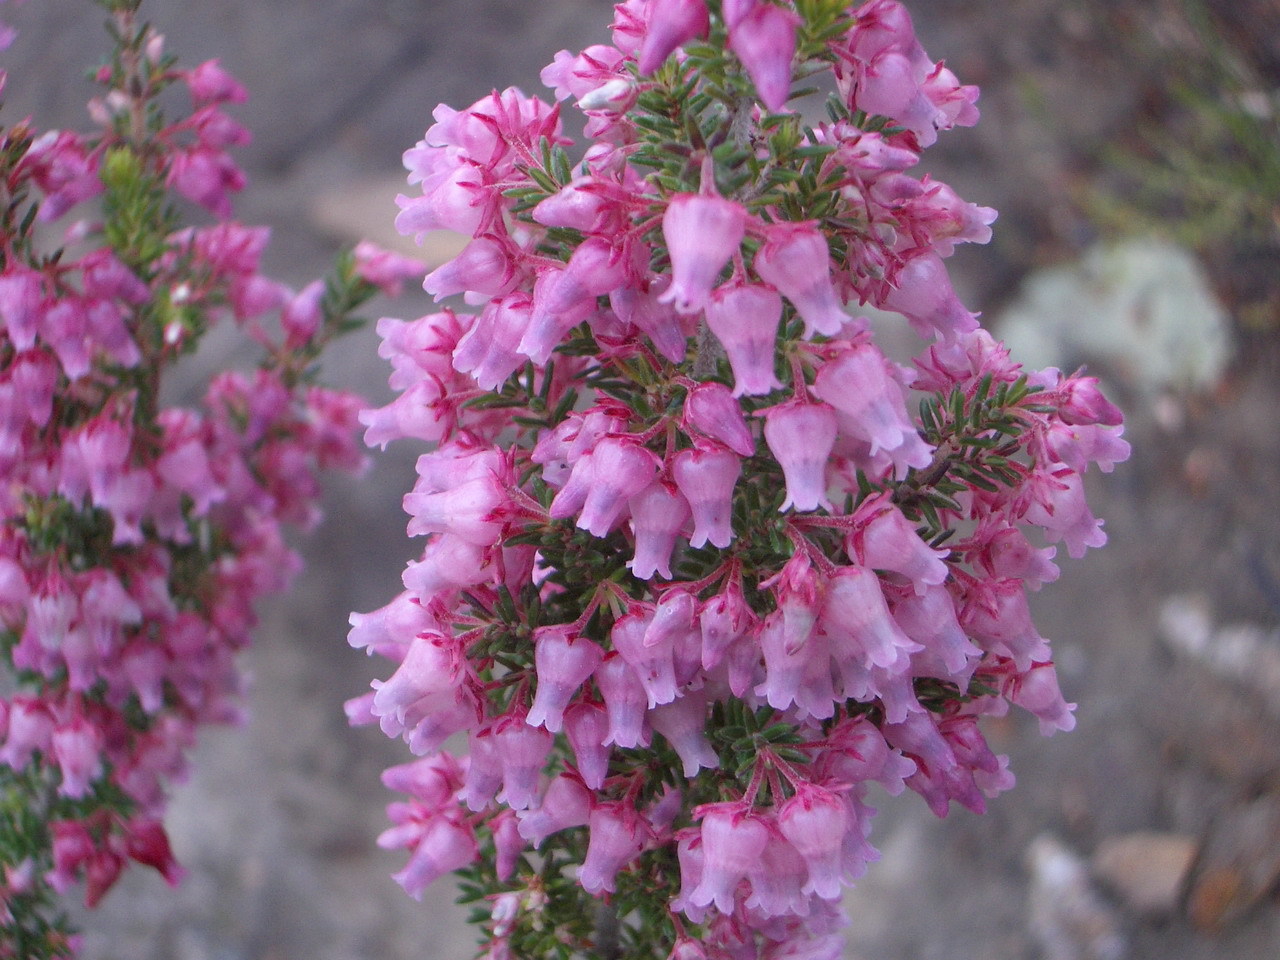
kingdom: Plantae
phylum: Tracheophyta
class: Magnoliopsida
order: Ericales
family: Ericaceae
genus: Erica
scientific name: Erica glomiflora
